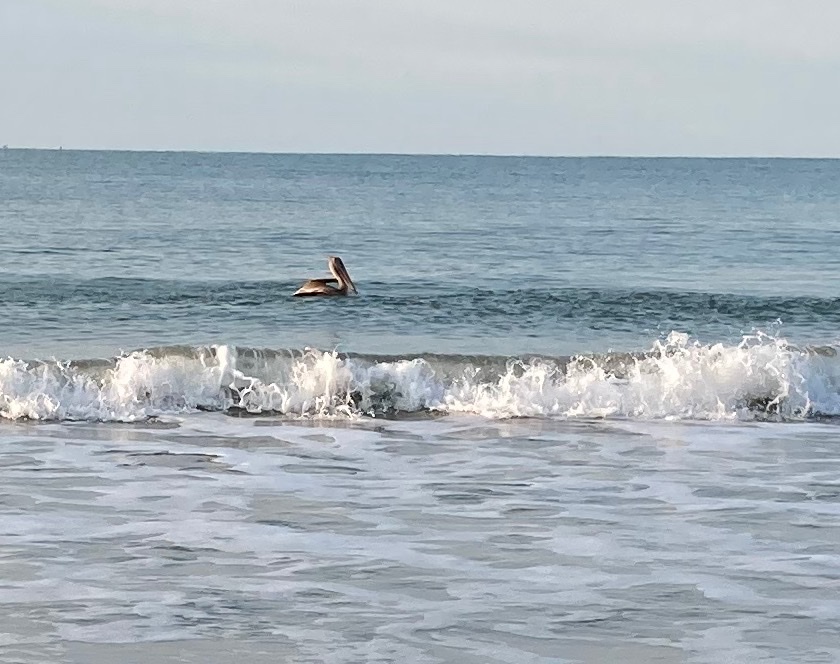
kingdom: Animalia
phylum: Chordata
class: Aves
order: Pelecaniformes
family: Pelecanidae
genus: Pelecanus
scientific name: Pelecanus occidentalis
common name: Brown pelican
